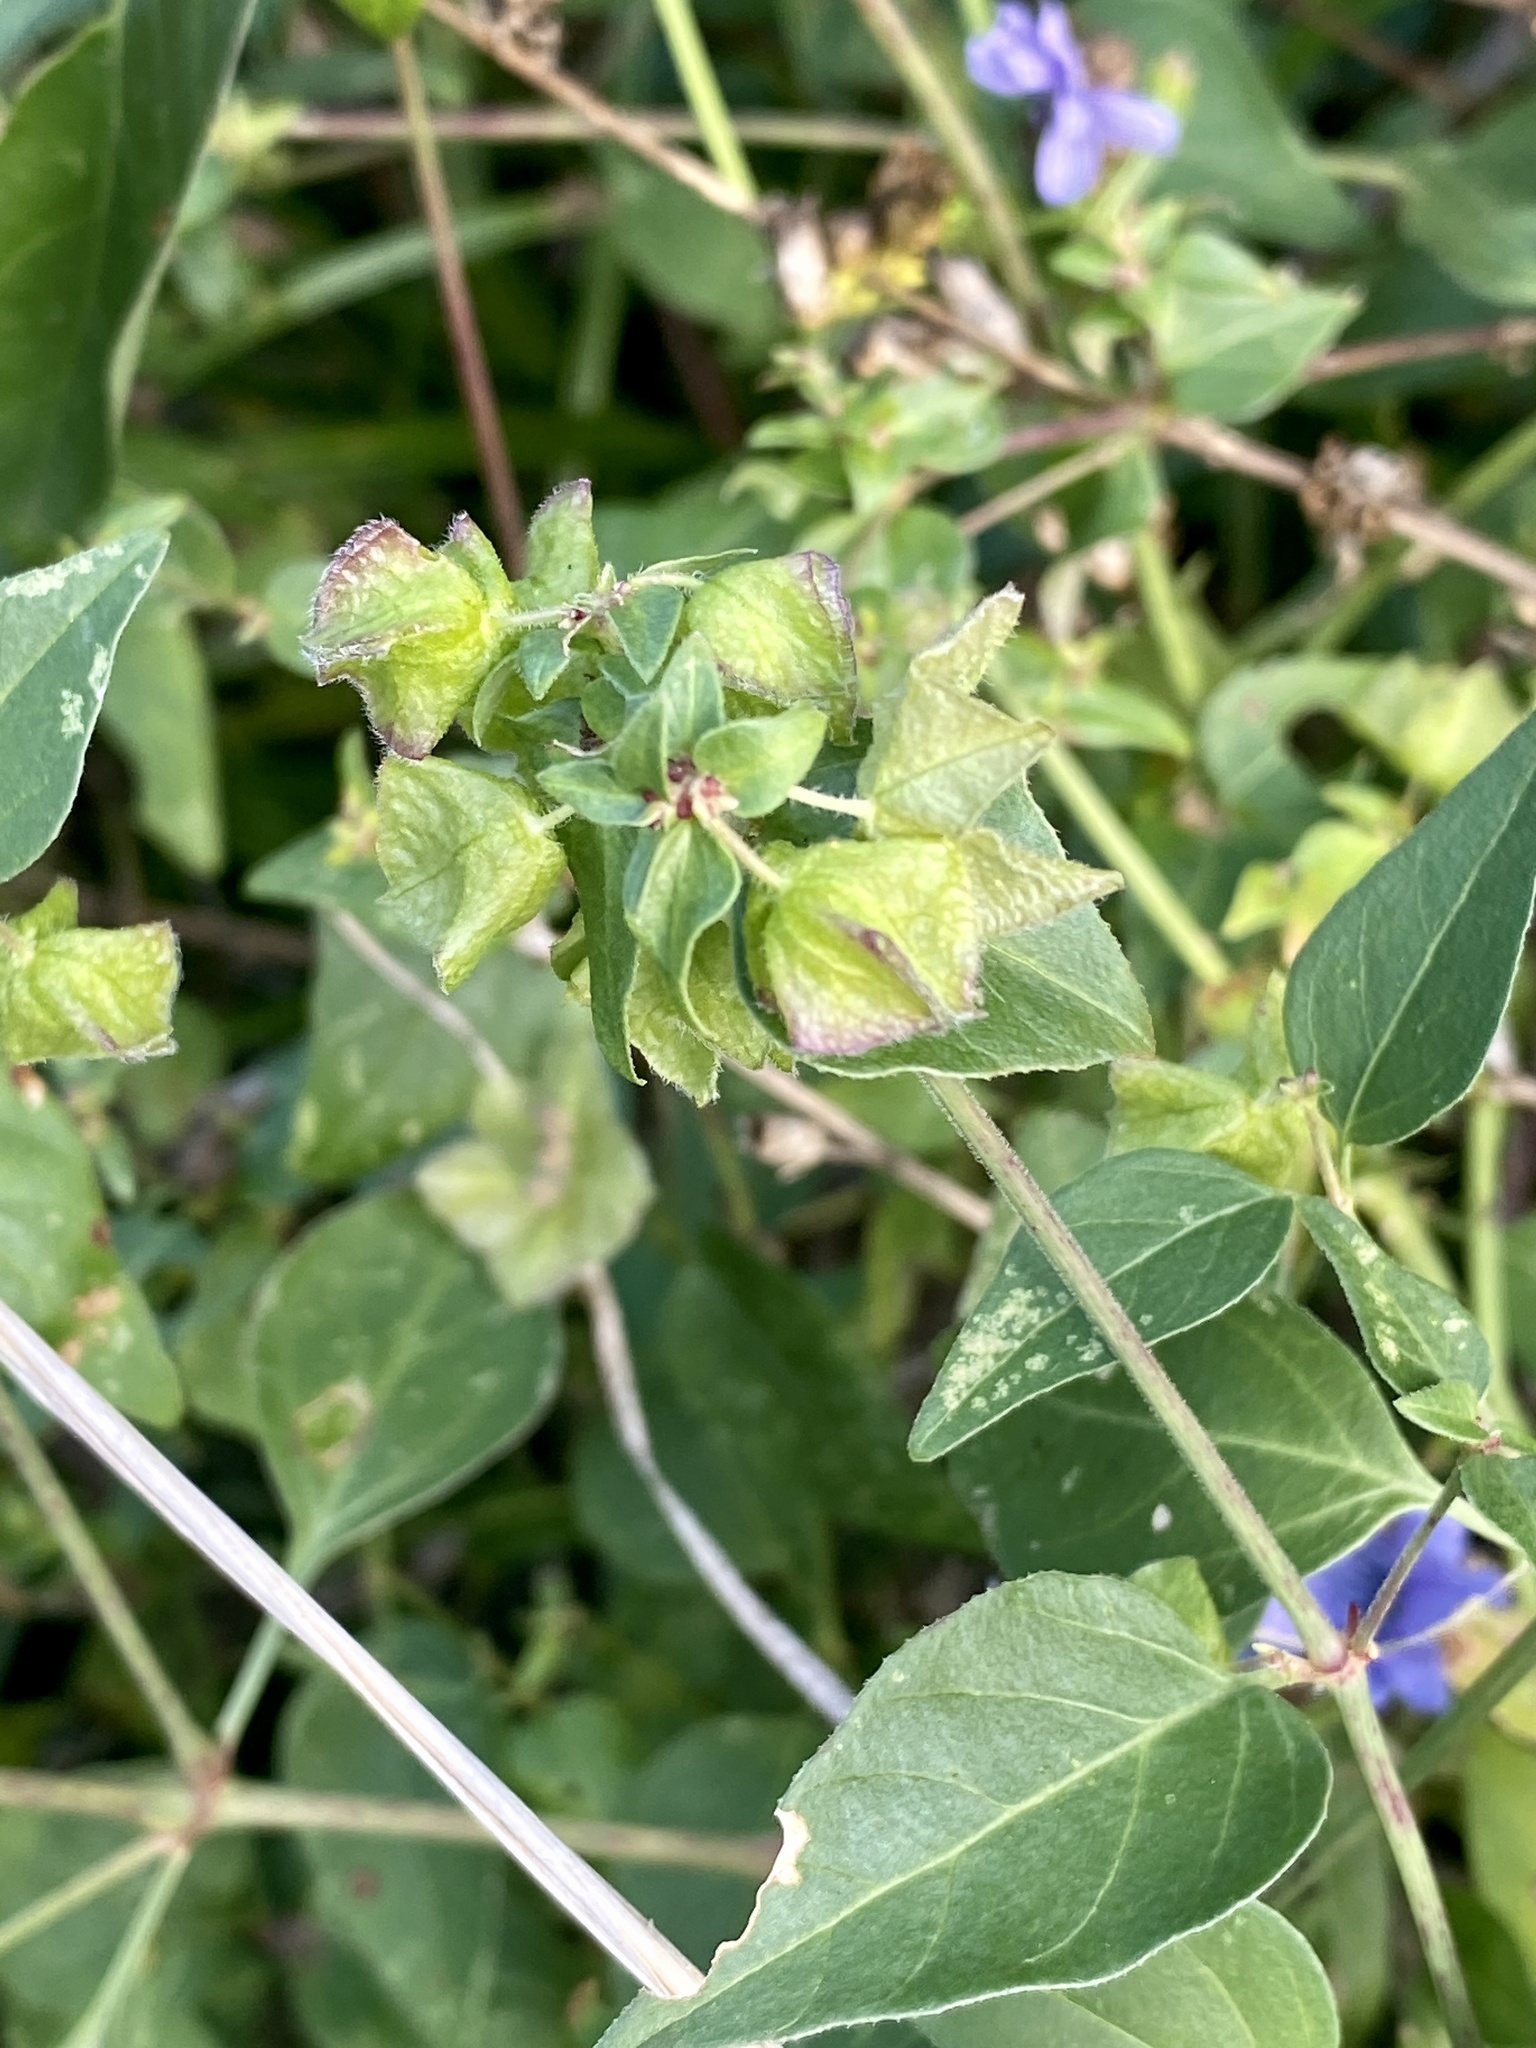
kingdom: Plantae
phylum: Tracheophyta
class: Magnoliopsida
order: Caryophyllales
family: Nyctaginaceae
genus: Mirabilis
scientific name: Mirabilis nyctaginea
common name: Umbrella wort
